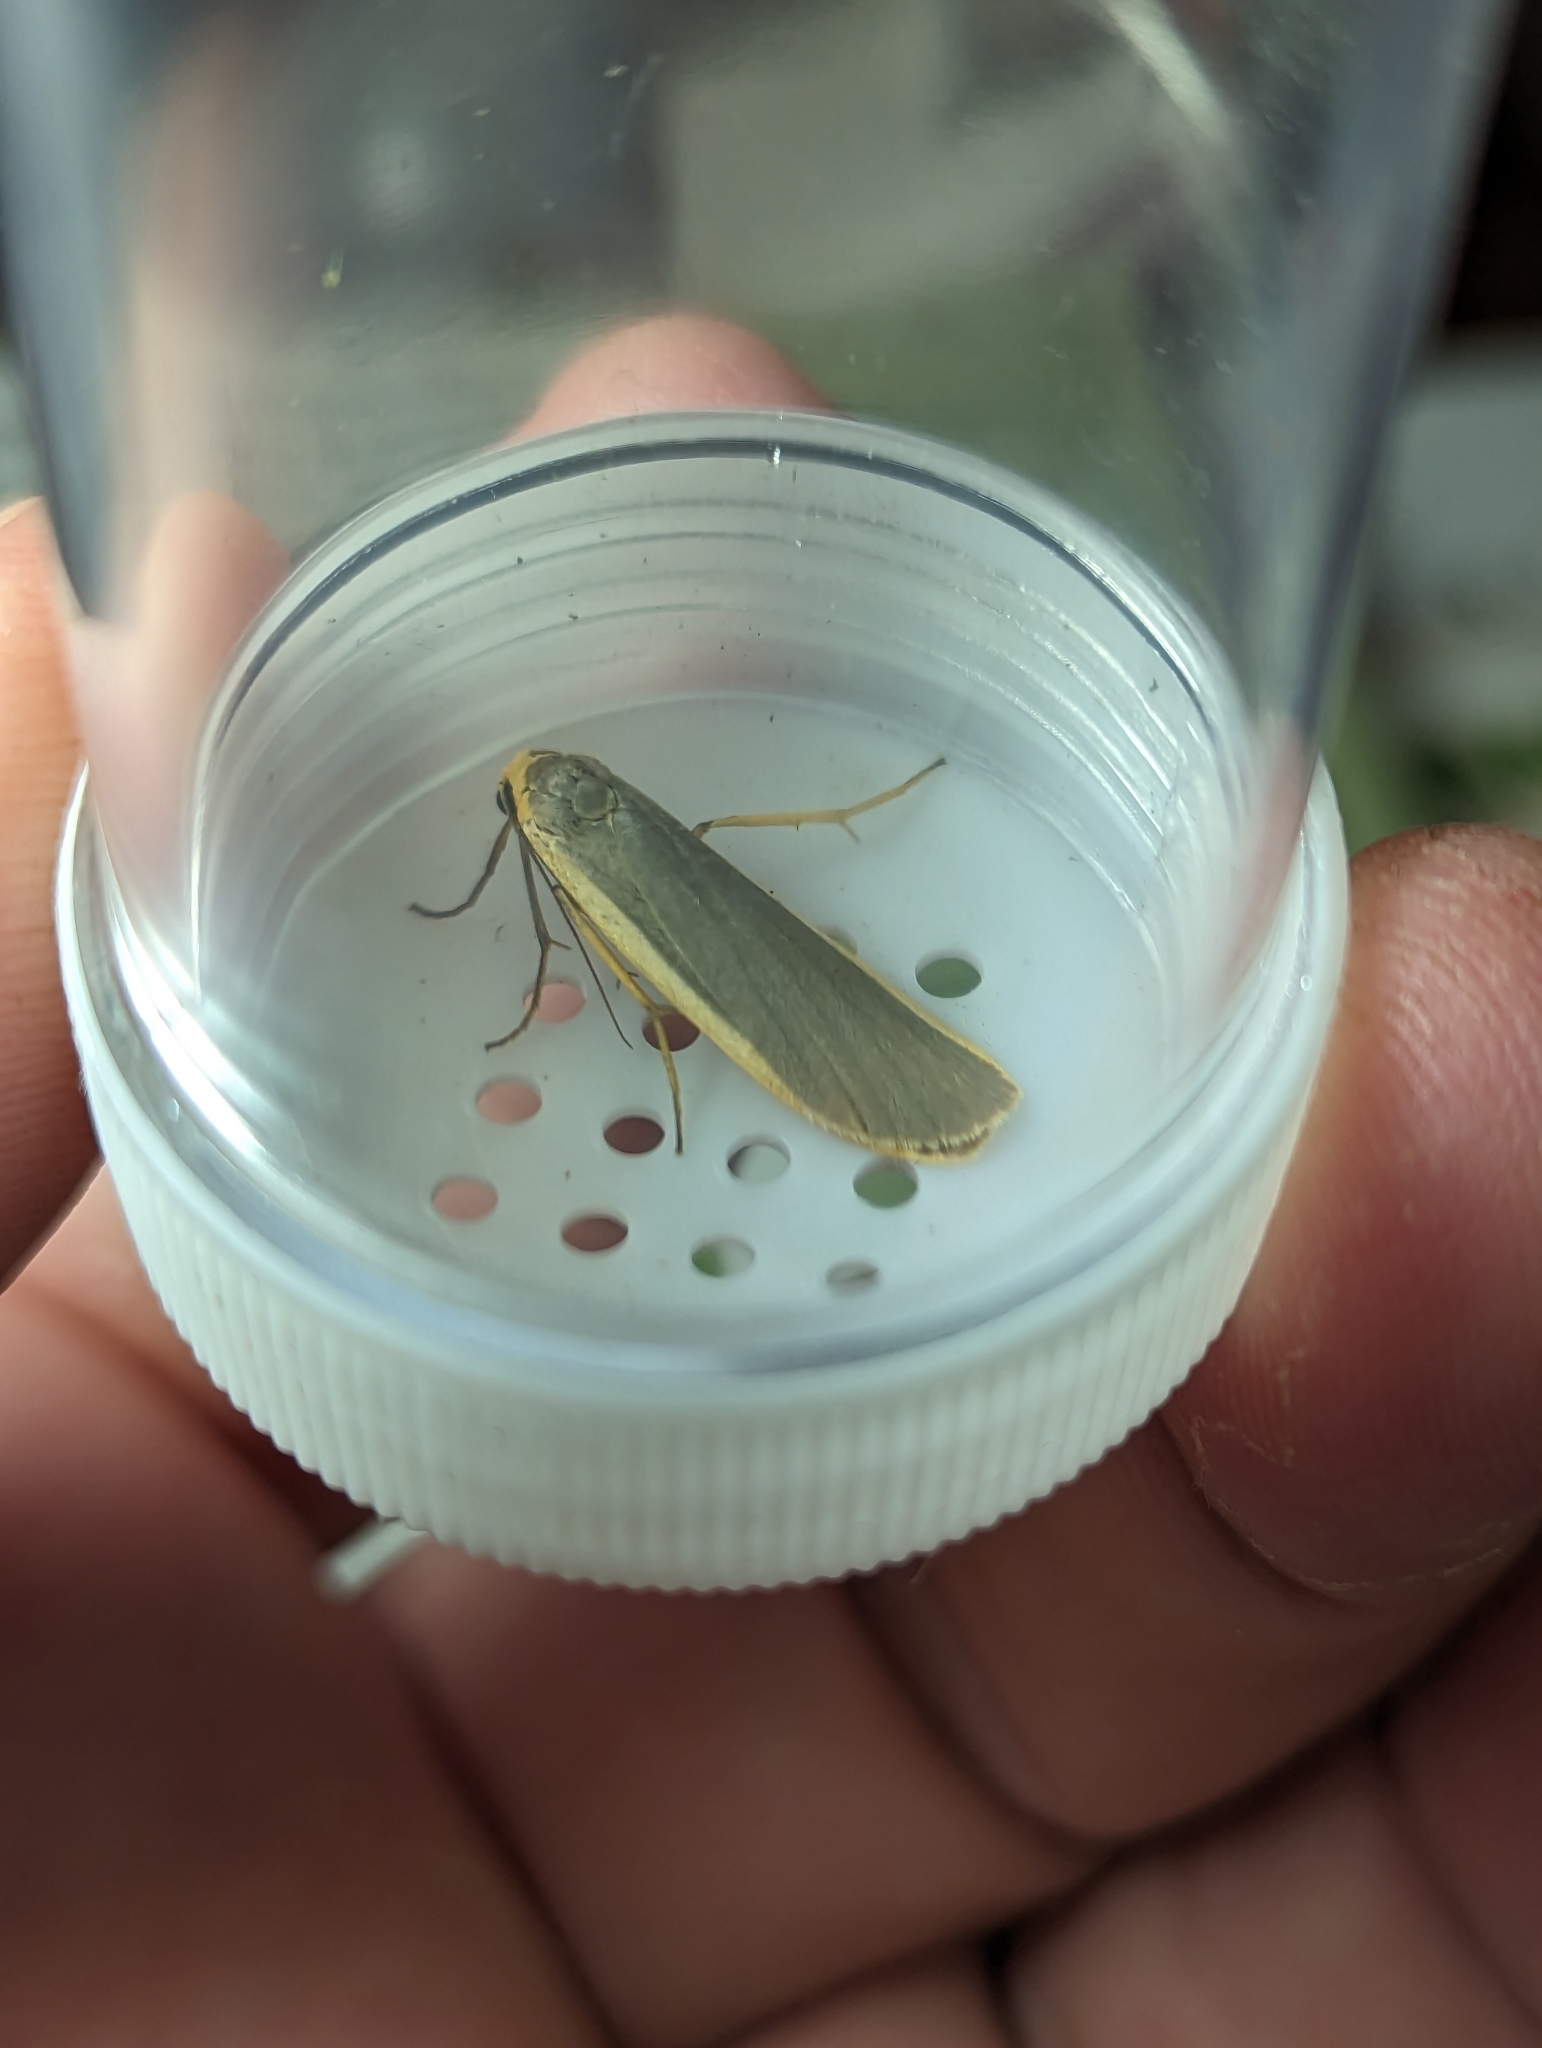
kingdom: Animalia
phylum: Arthropoda
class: Insecta
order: Lepidoptera
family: Erebidae
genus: Nyea
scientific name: Nyea lurideola
